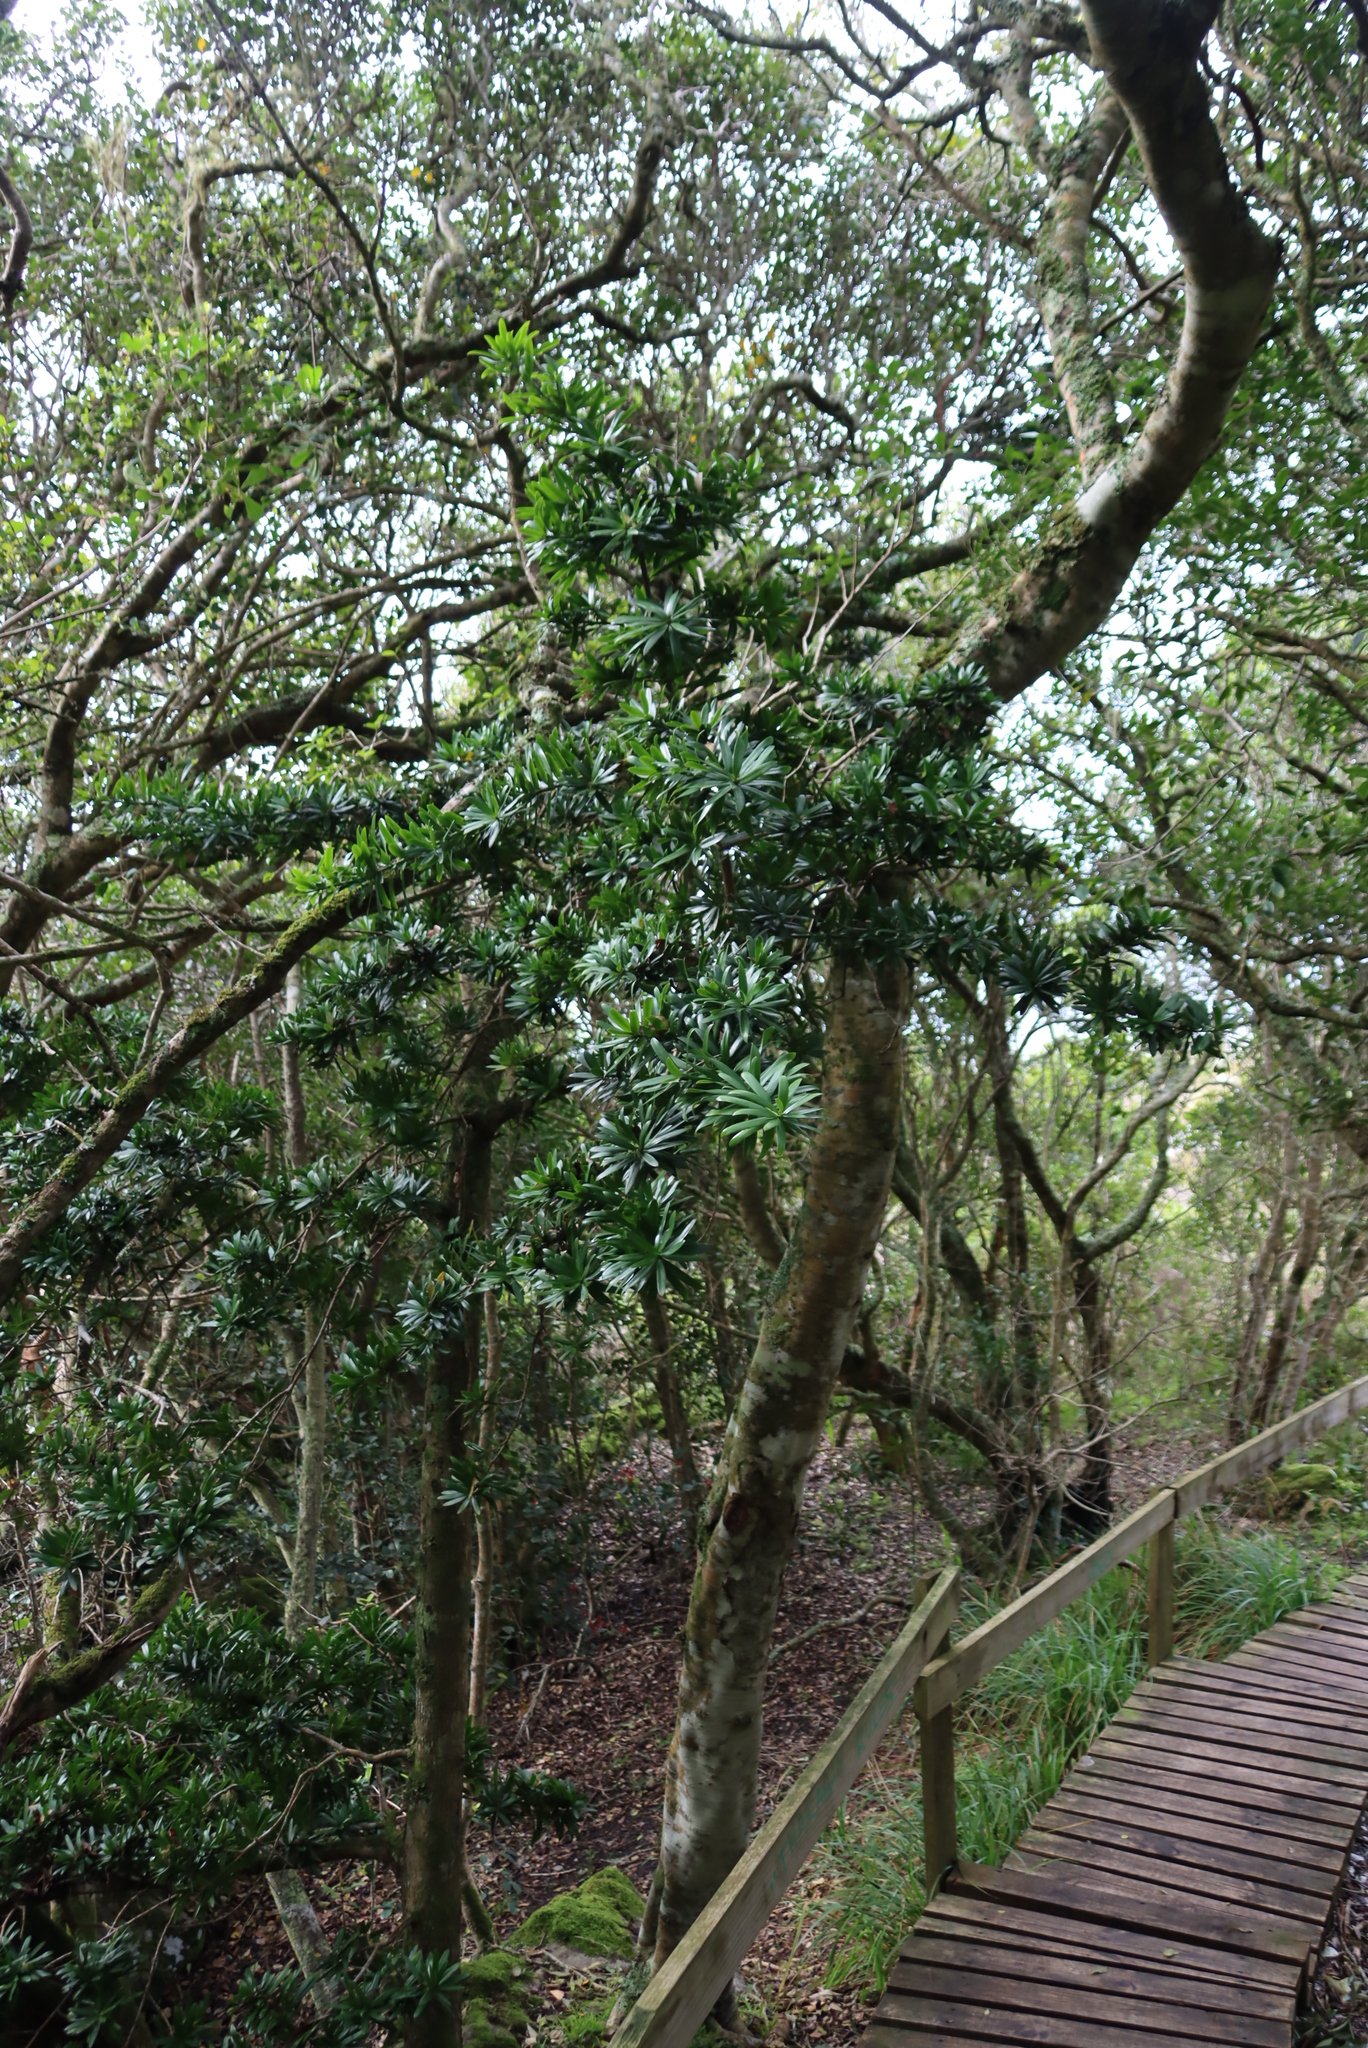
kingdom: Plantae
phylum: Tracheophyta
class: Pinopsida
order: Pinales
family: Podocarpaceae
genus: Podocarpus
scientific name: Podocarpus latifolius
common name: True yellowwood
